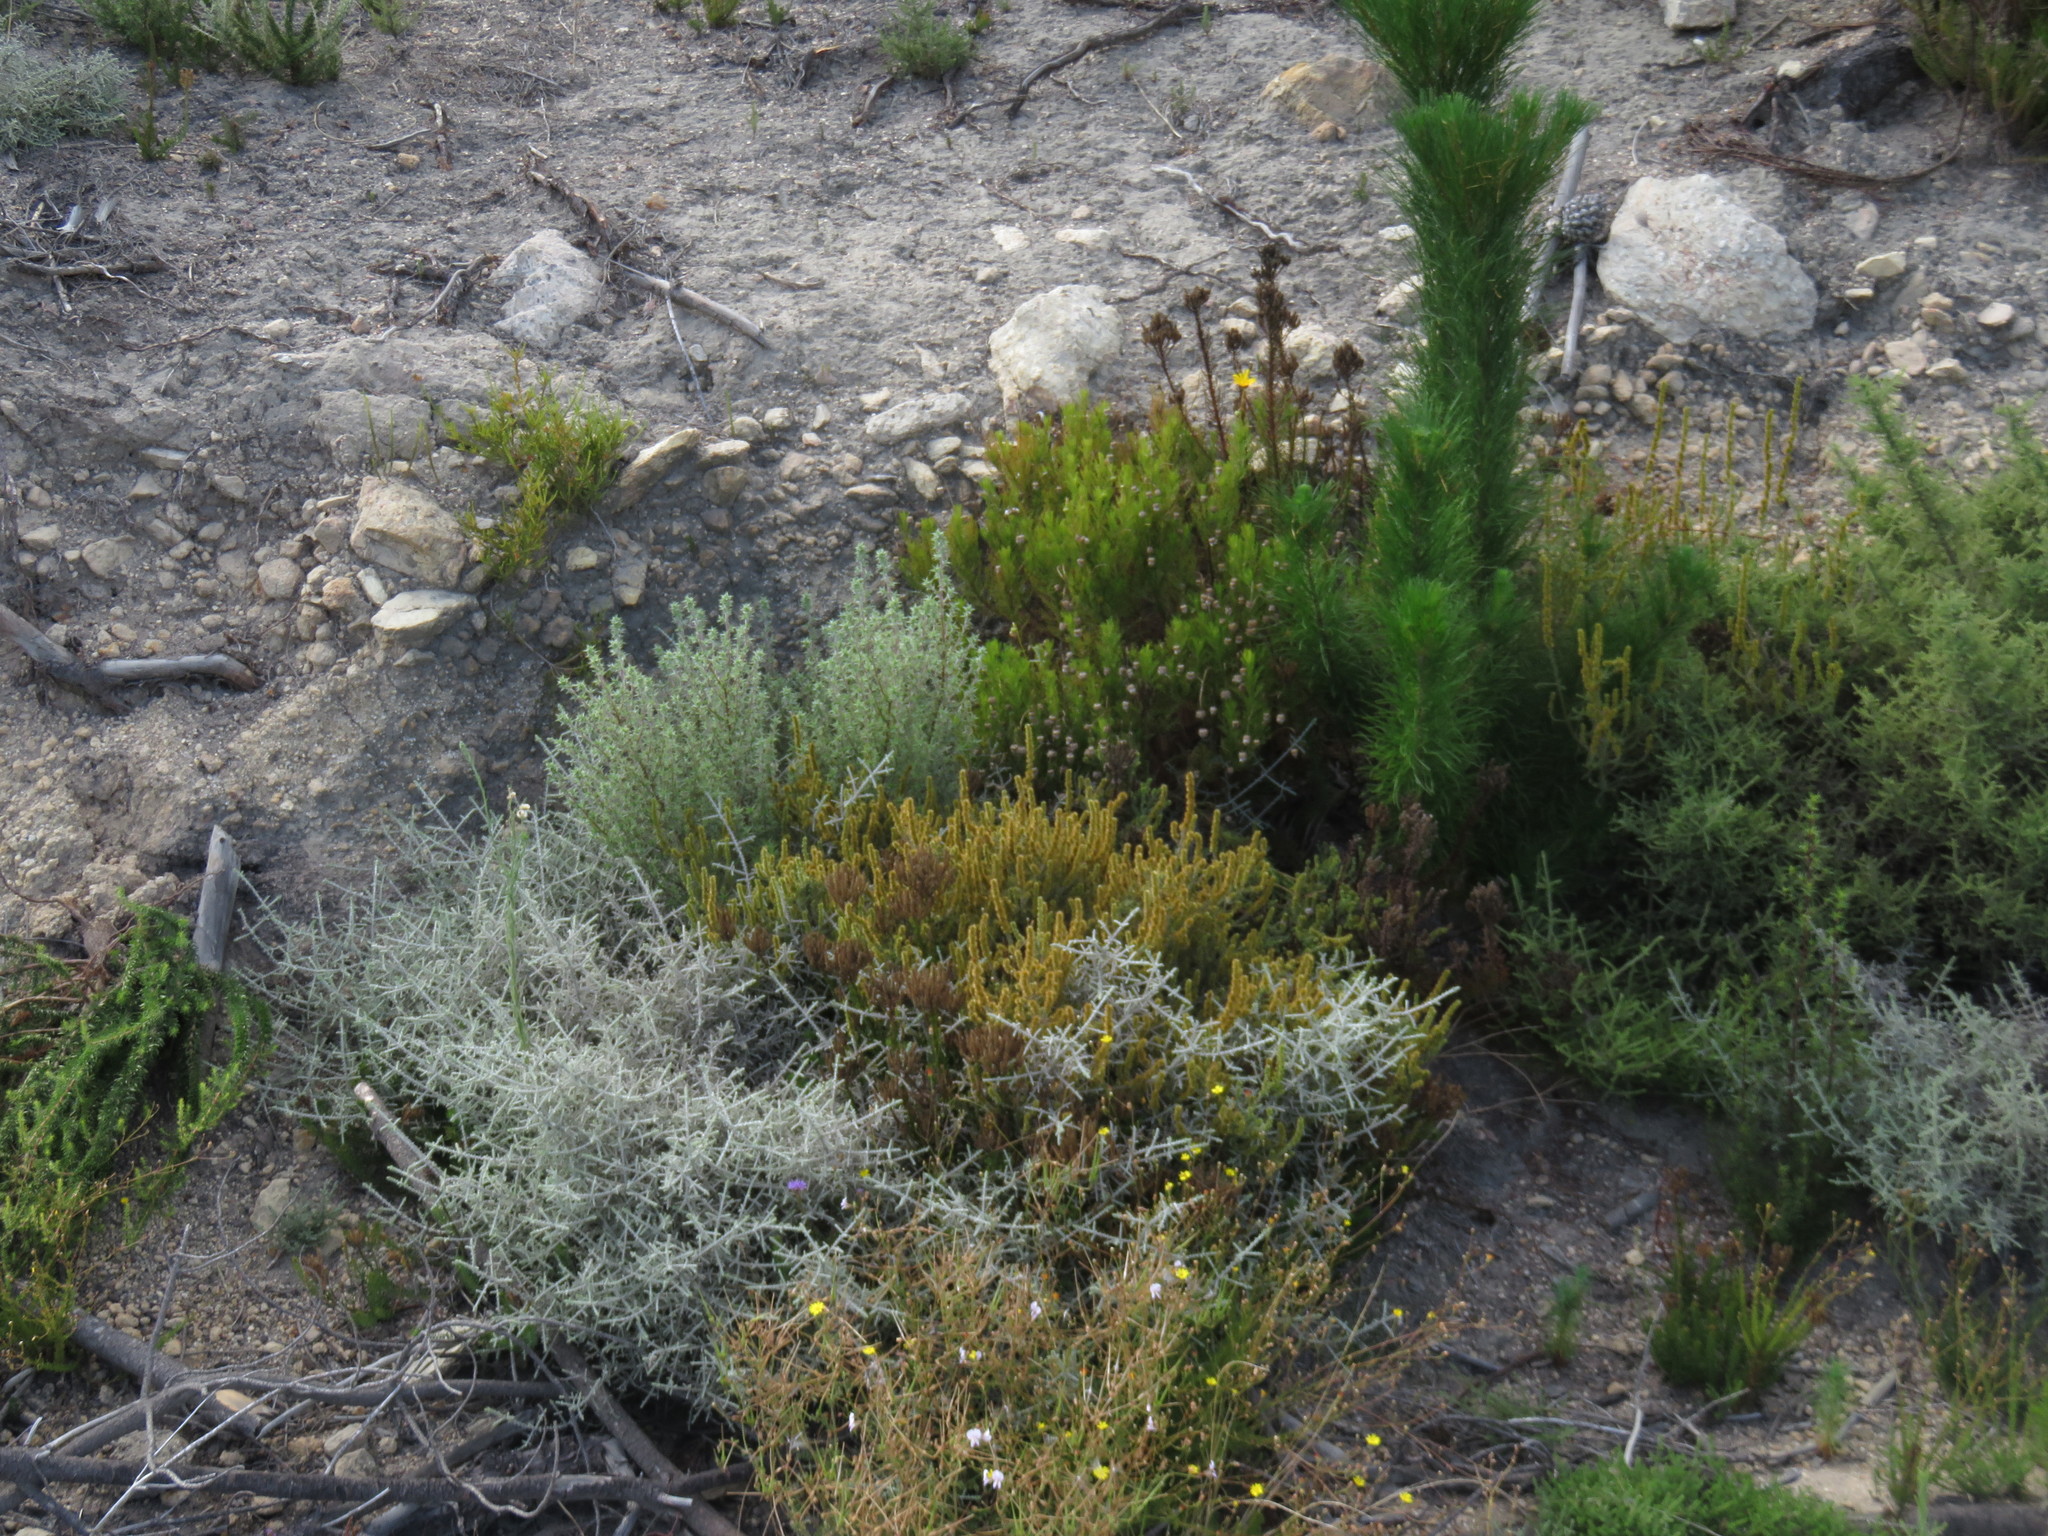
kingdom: Plantae
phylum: Tracheophyta
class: Magnoliopsida
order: Asterales
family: Asteraceae
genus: Seriphium
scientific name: Seriphium plumosum
